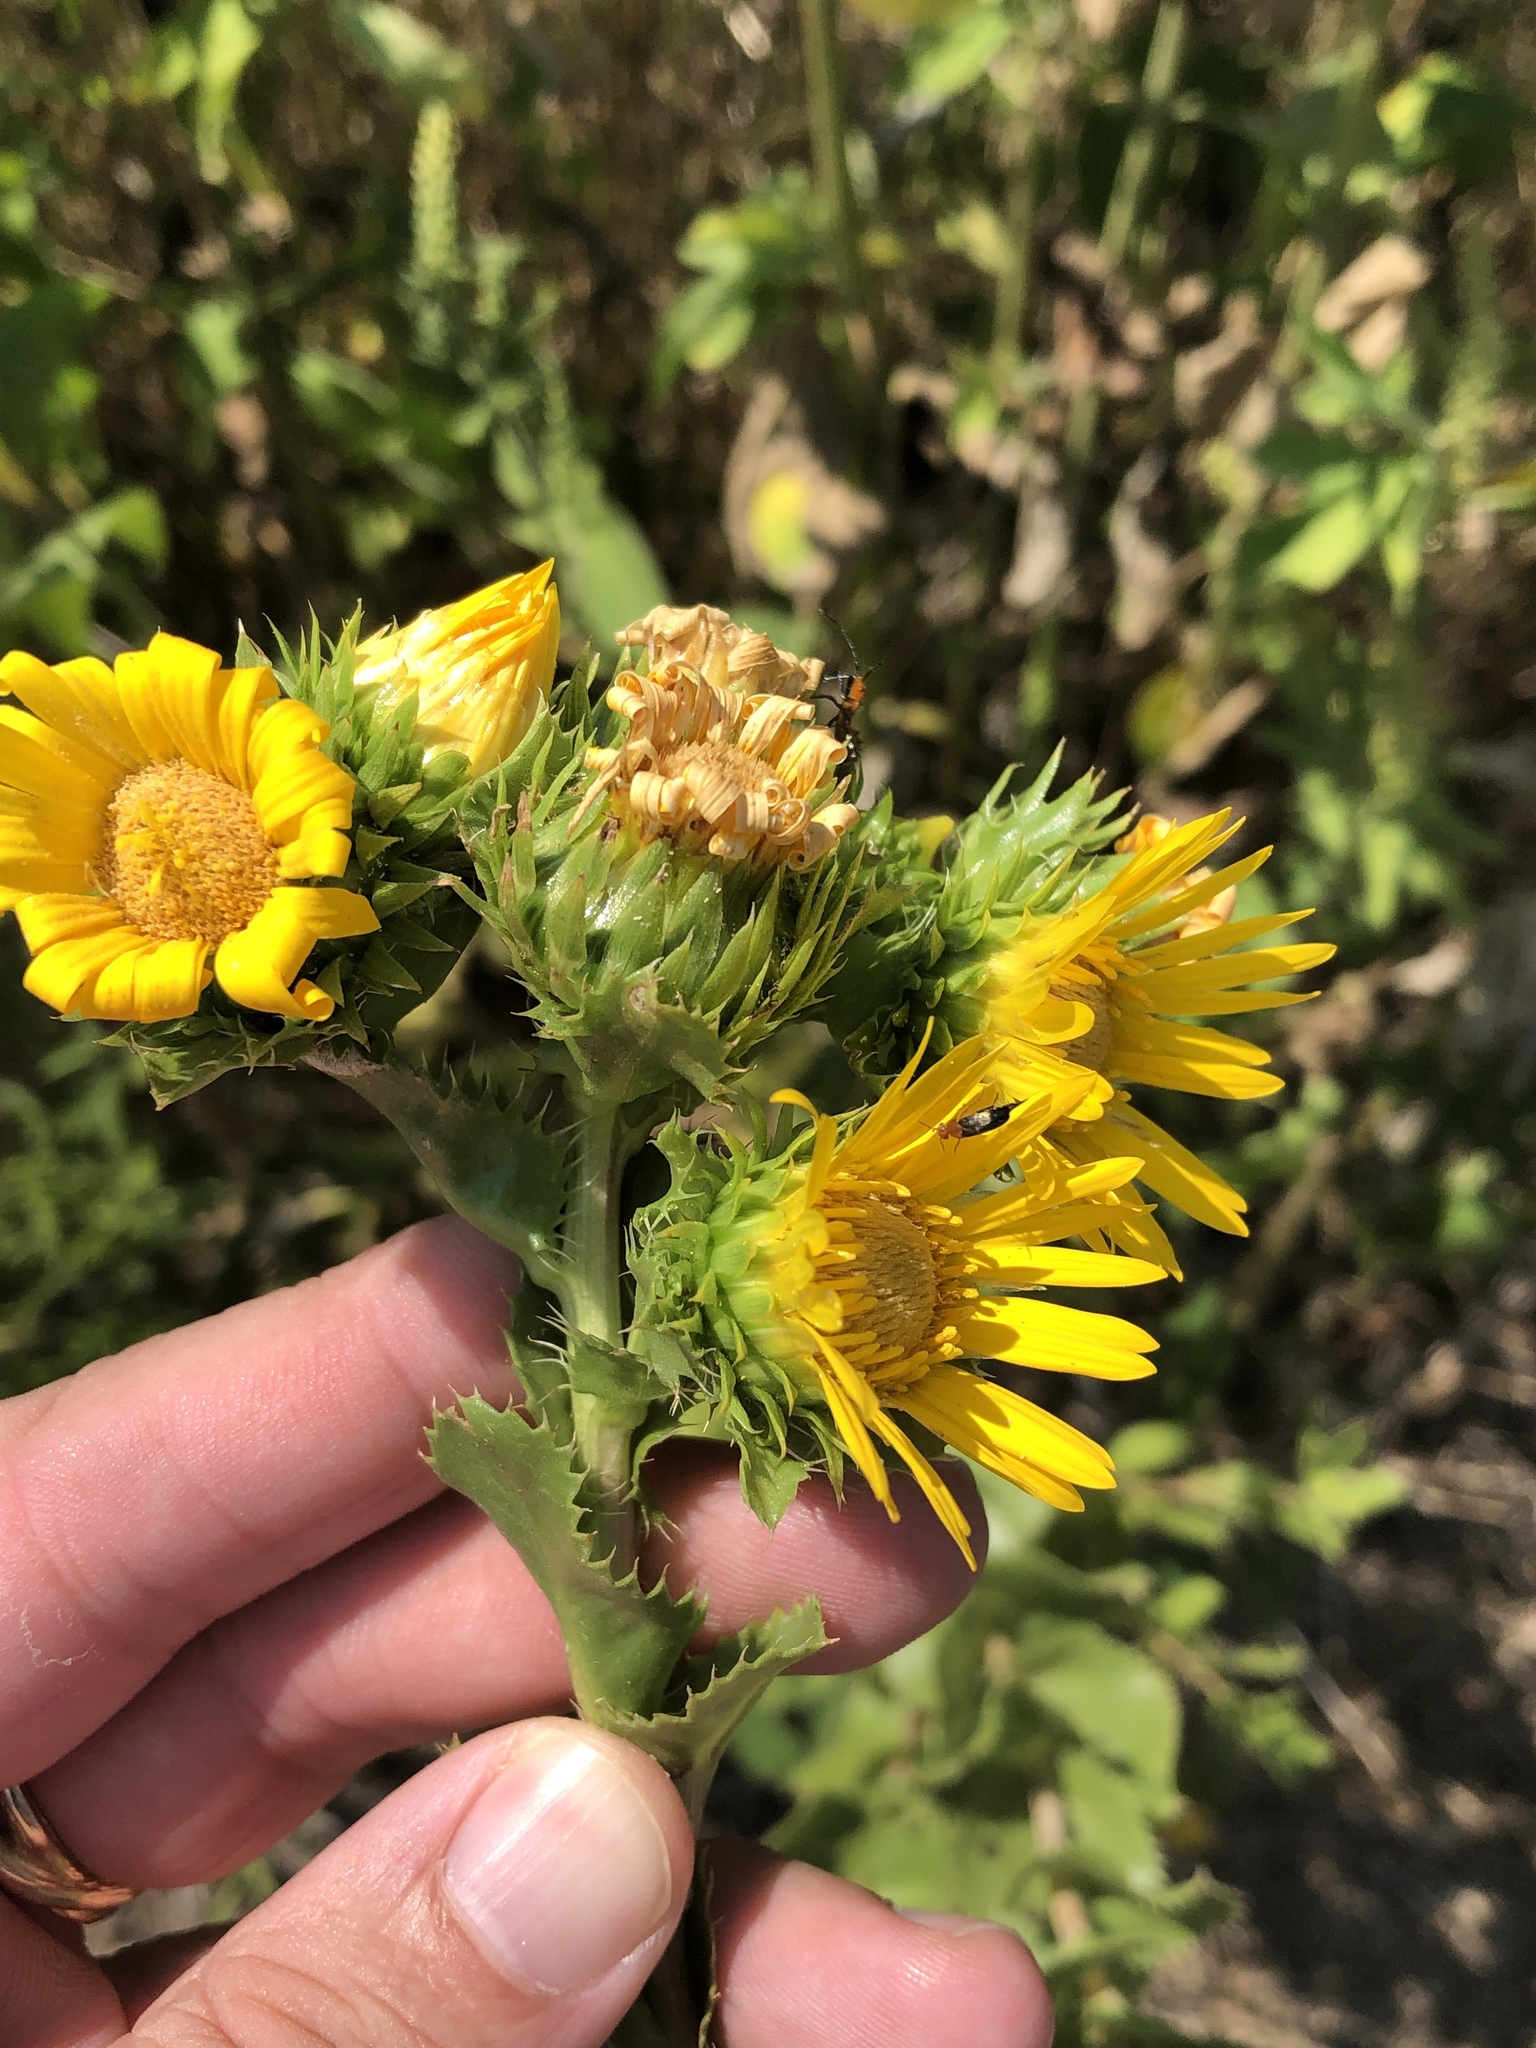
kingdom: Plantae
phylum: Tracheophyta
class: Magnoliopsida
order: Asterales
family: Asteraceae
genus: Grindelia
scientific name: Grindelia ciliata
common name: Goldenweed
